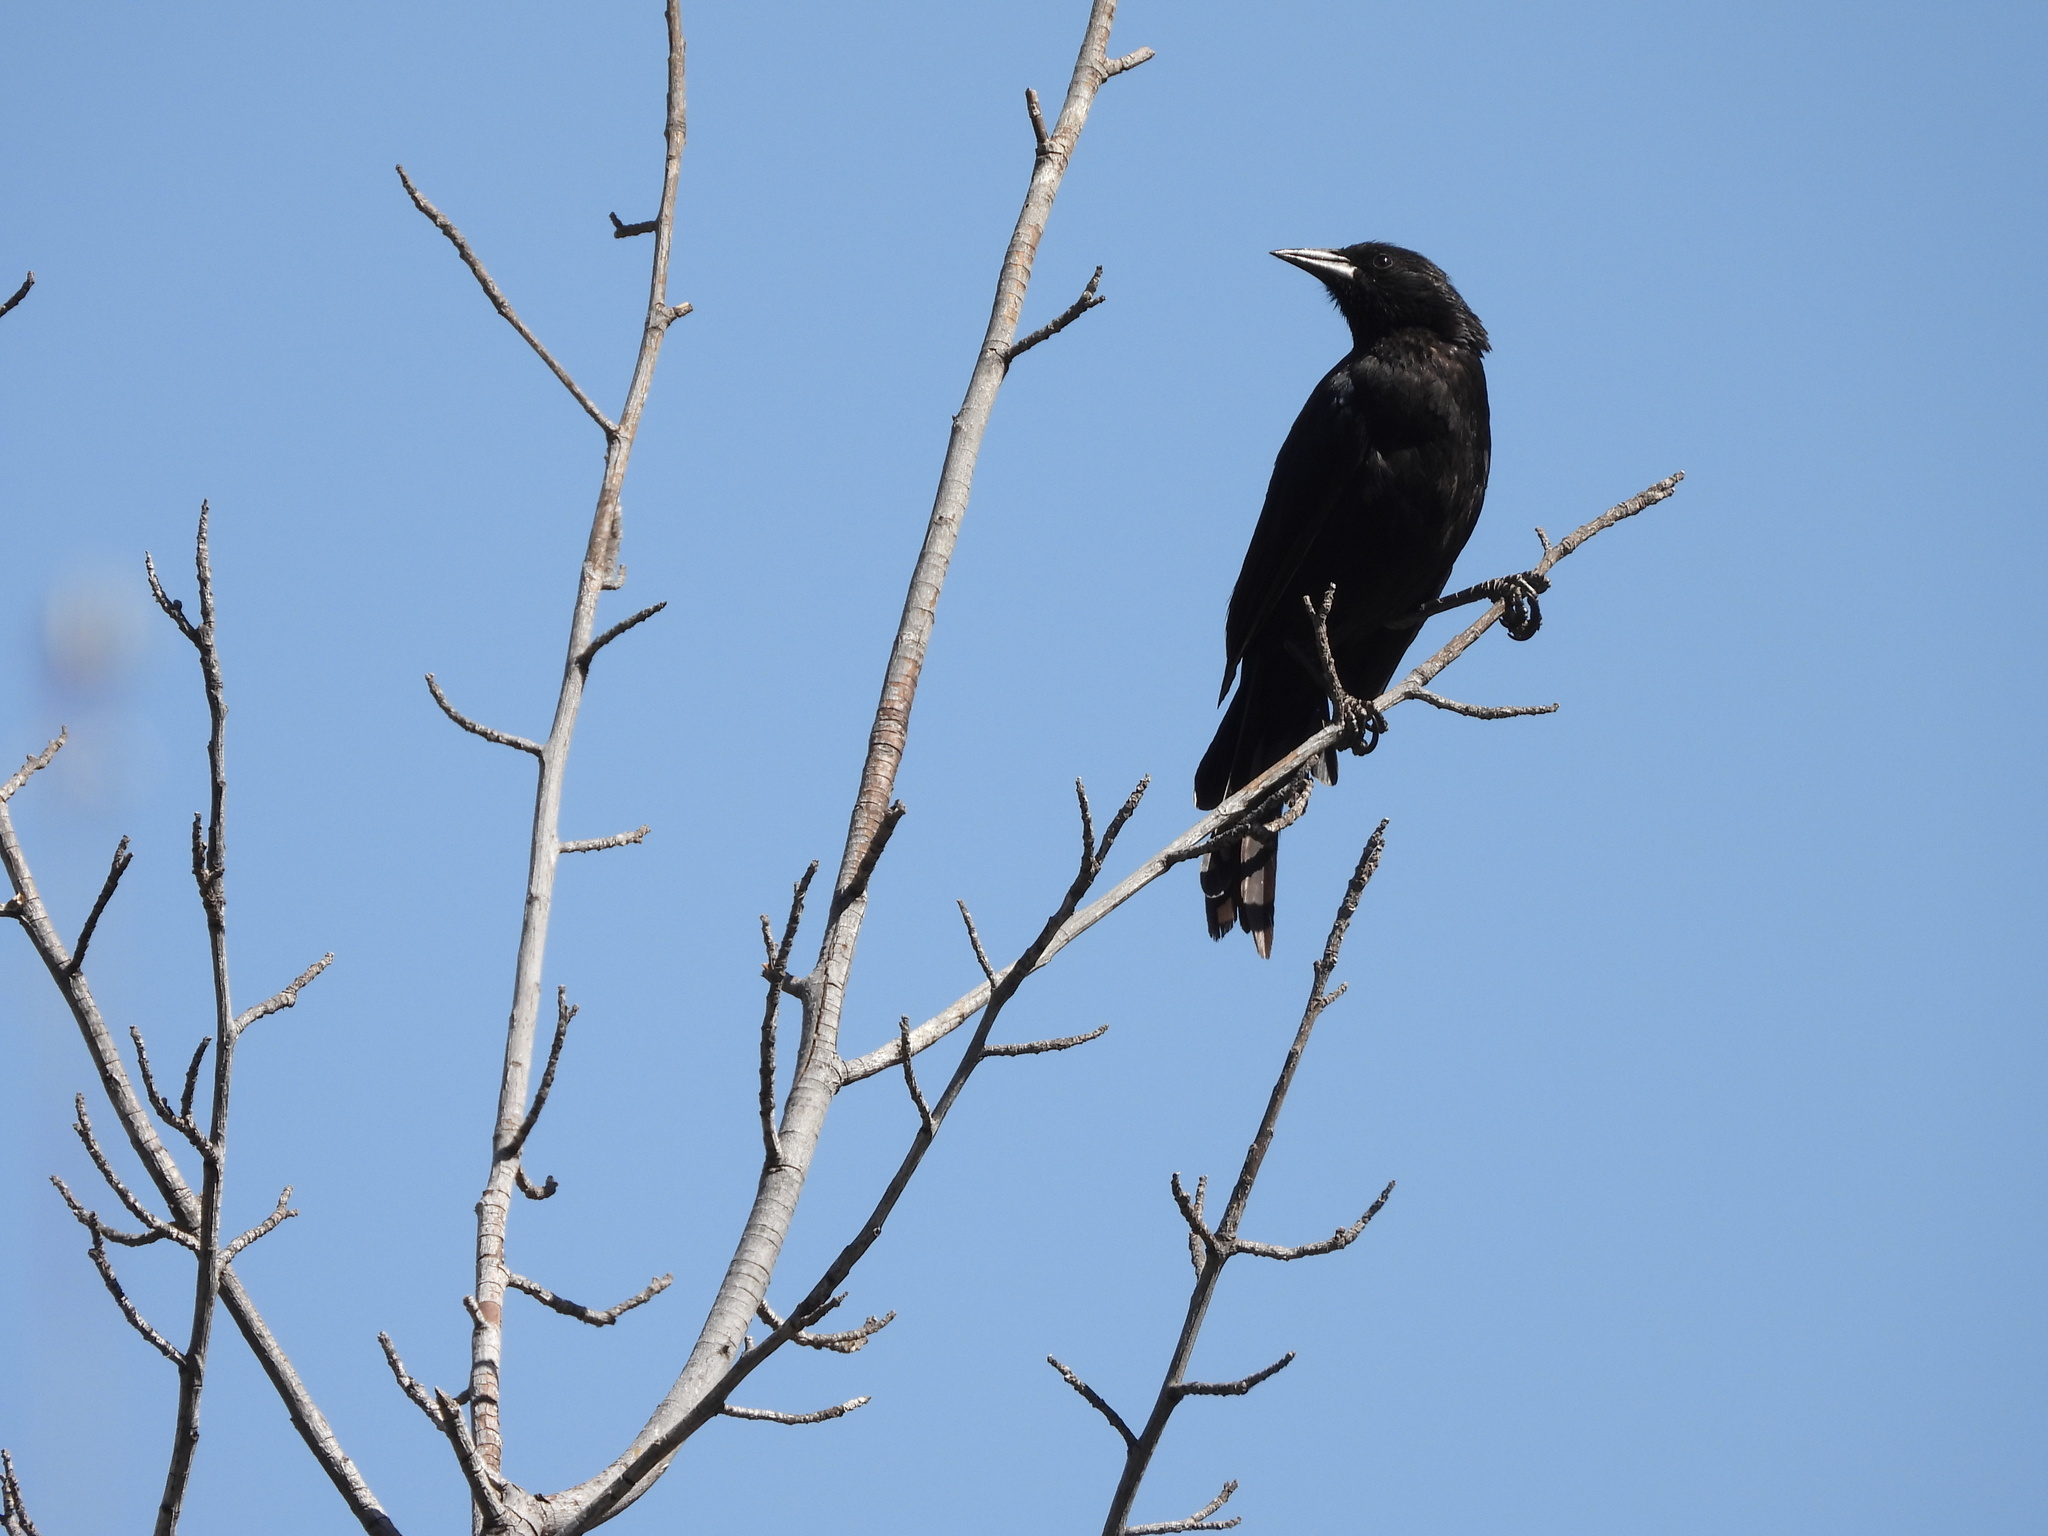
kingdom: Animalia
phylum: Chordata
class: Aves
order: Passeriformes
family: Icteridae
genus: Curaeus
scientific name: Curaeus curaeus
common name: Austral blackbird
